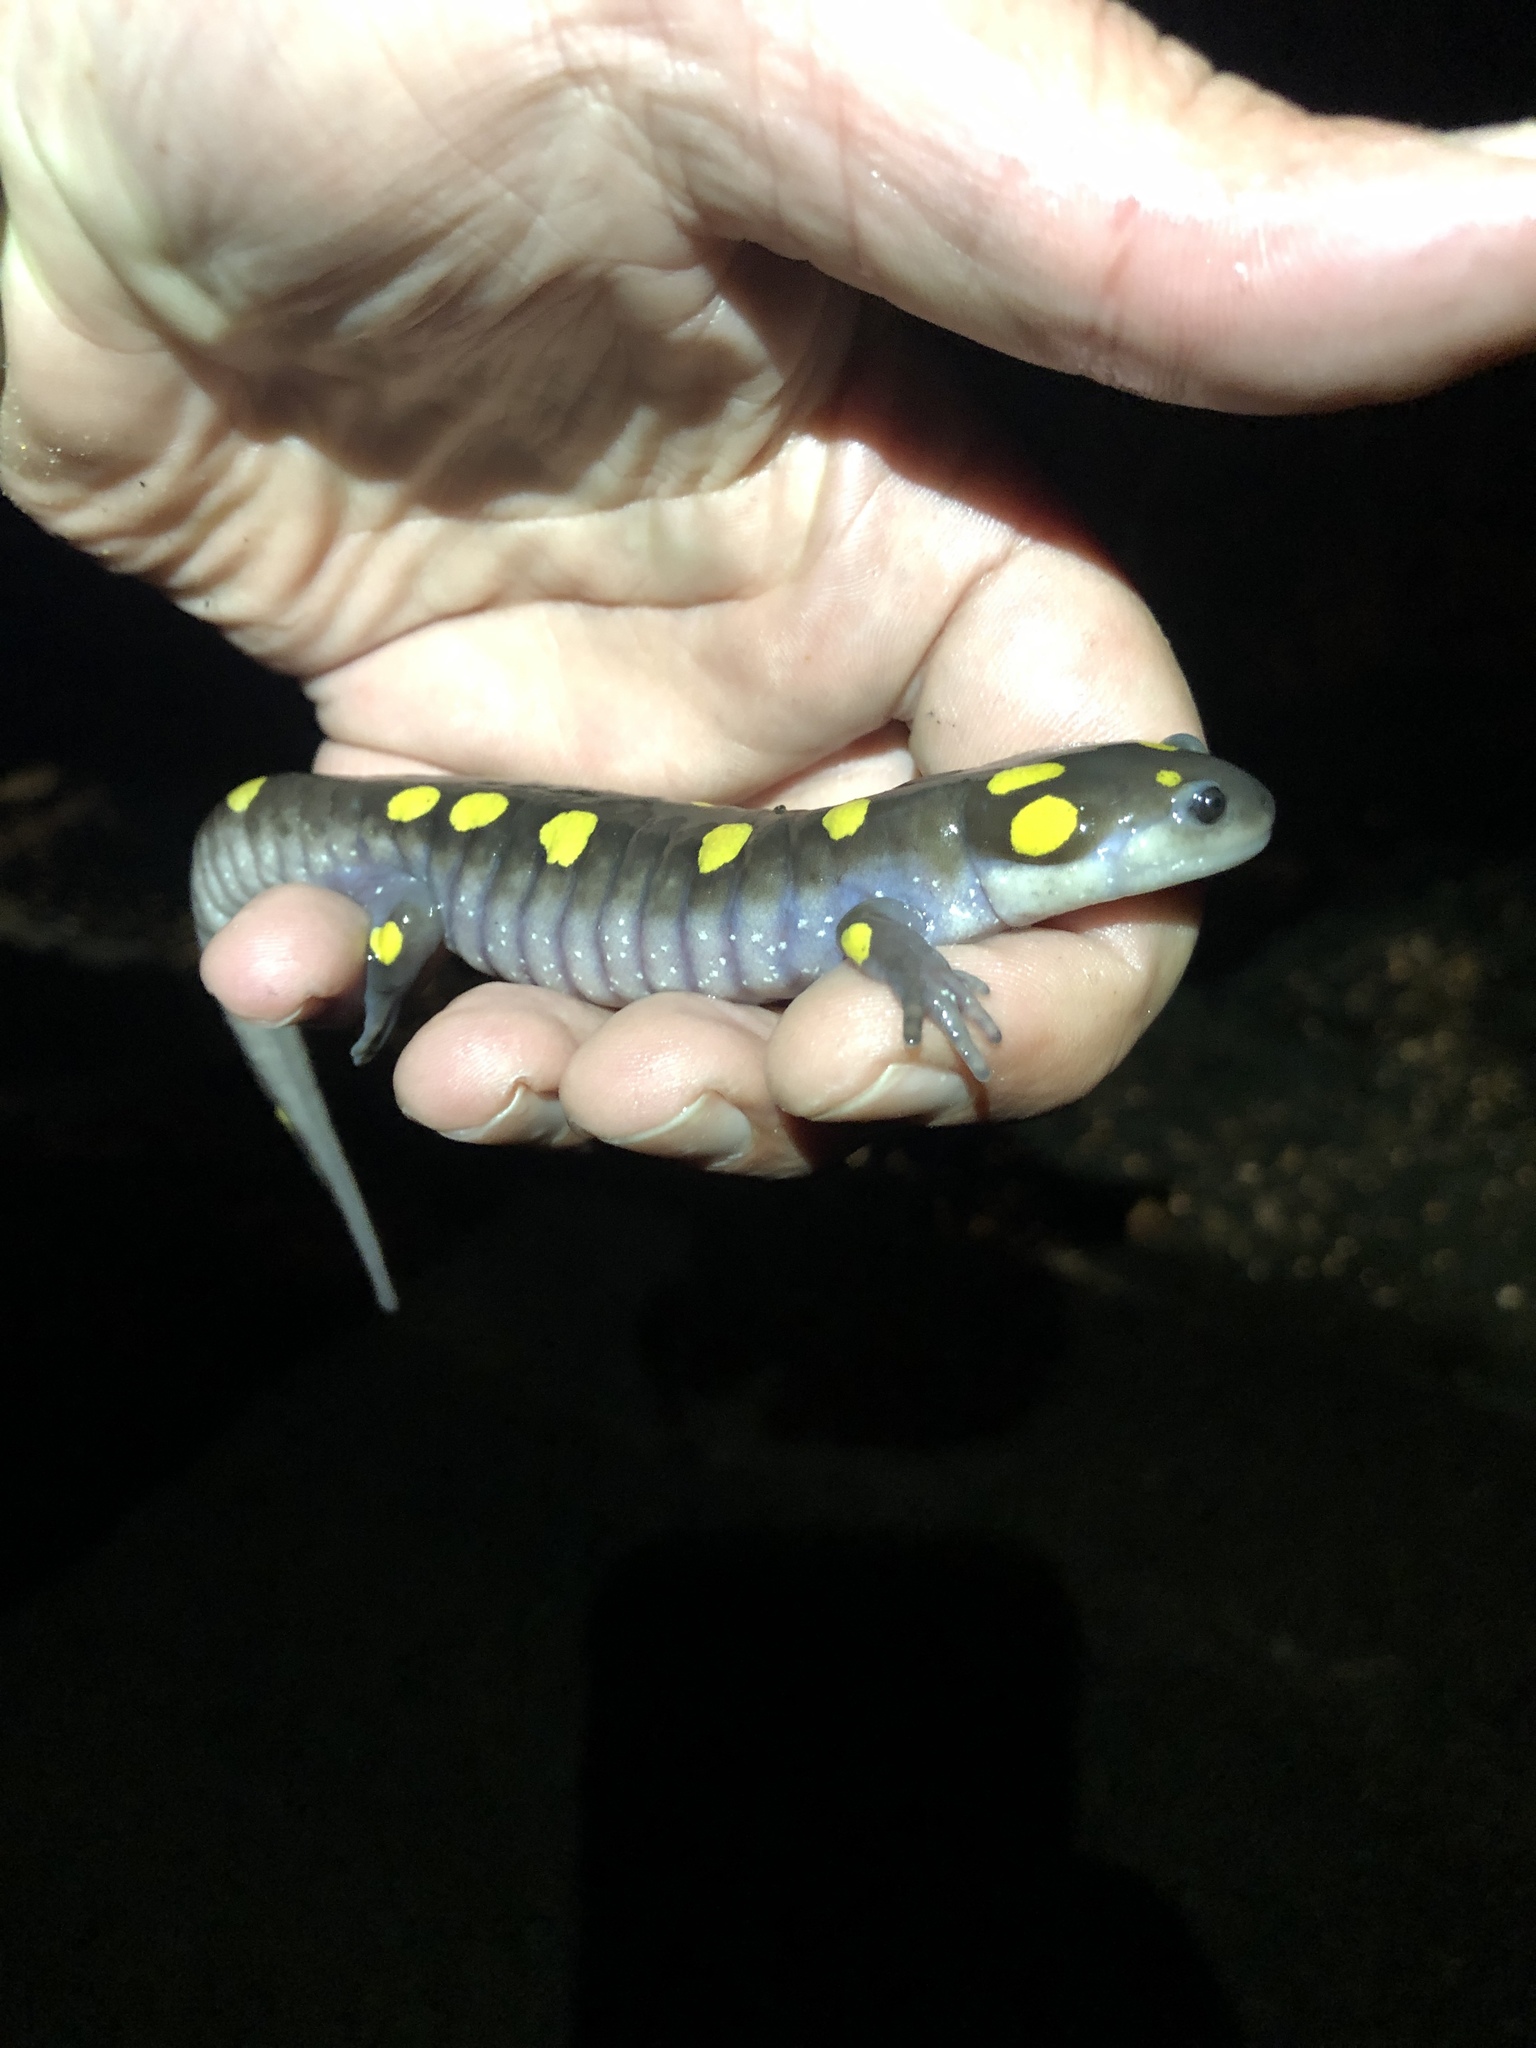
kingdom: Animalia
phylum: Chordata
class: Amphibia
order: Caudata
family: Ambystomatidae
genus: Ambystoma
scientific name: Ambystoma maculatum
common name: Spotted salamander
